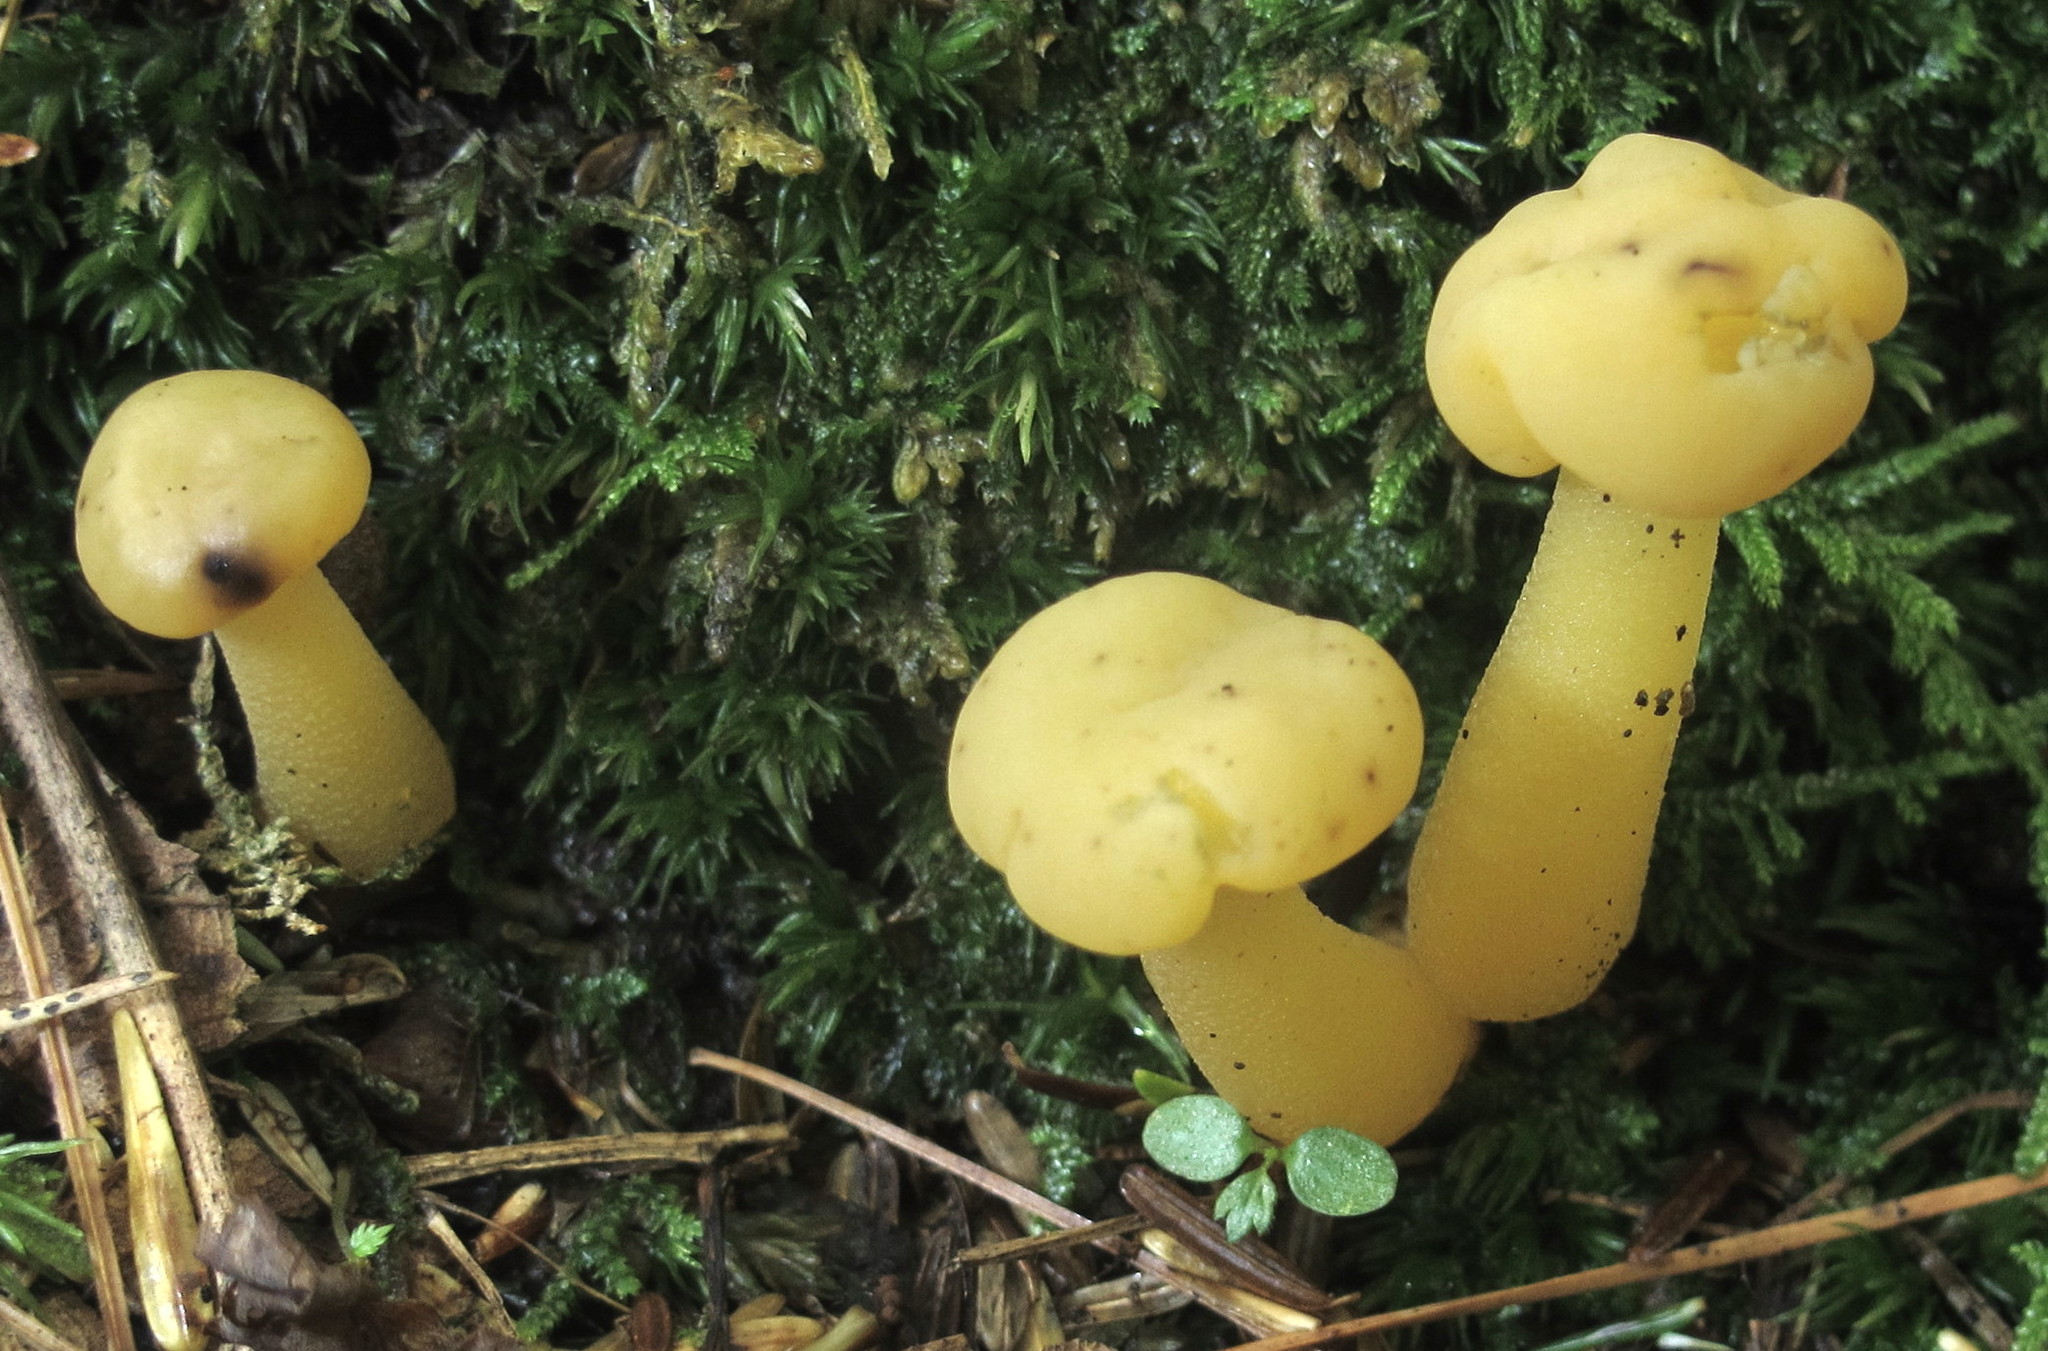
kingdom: Fungi
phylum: Ascomycota
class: Leotiomycetes
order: Leotiales
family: Leotiaceae
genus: Leotia
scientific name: Leotia lubrica
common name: Jellybaby
